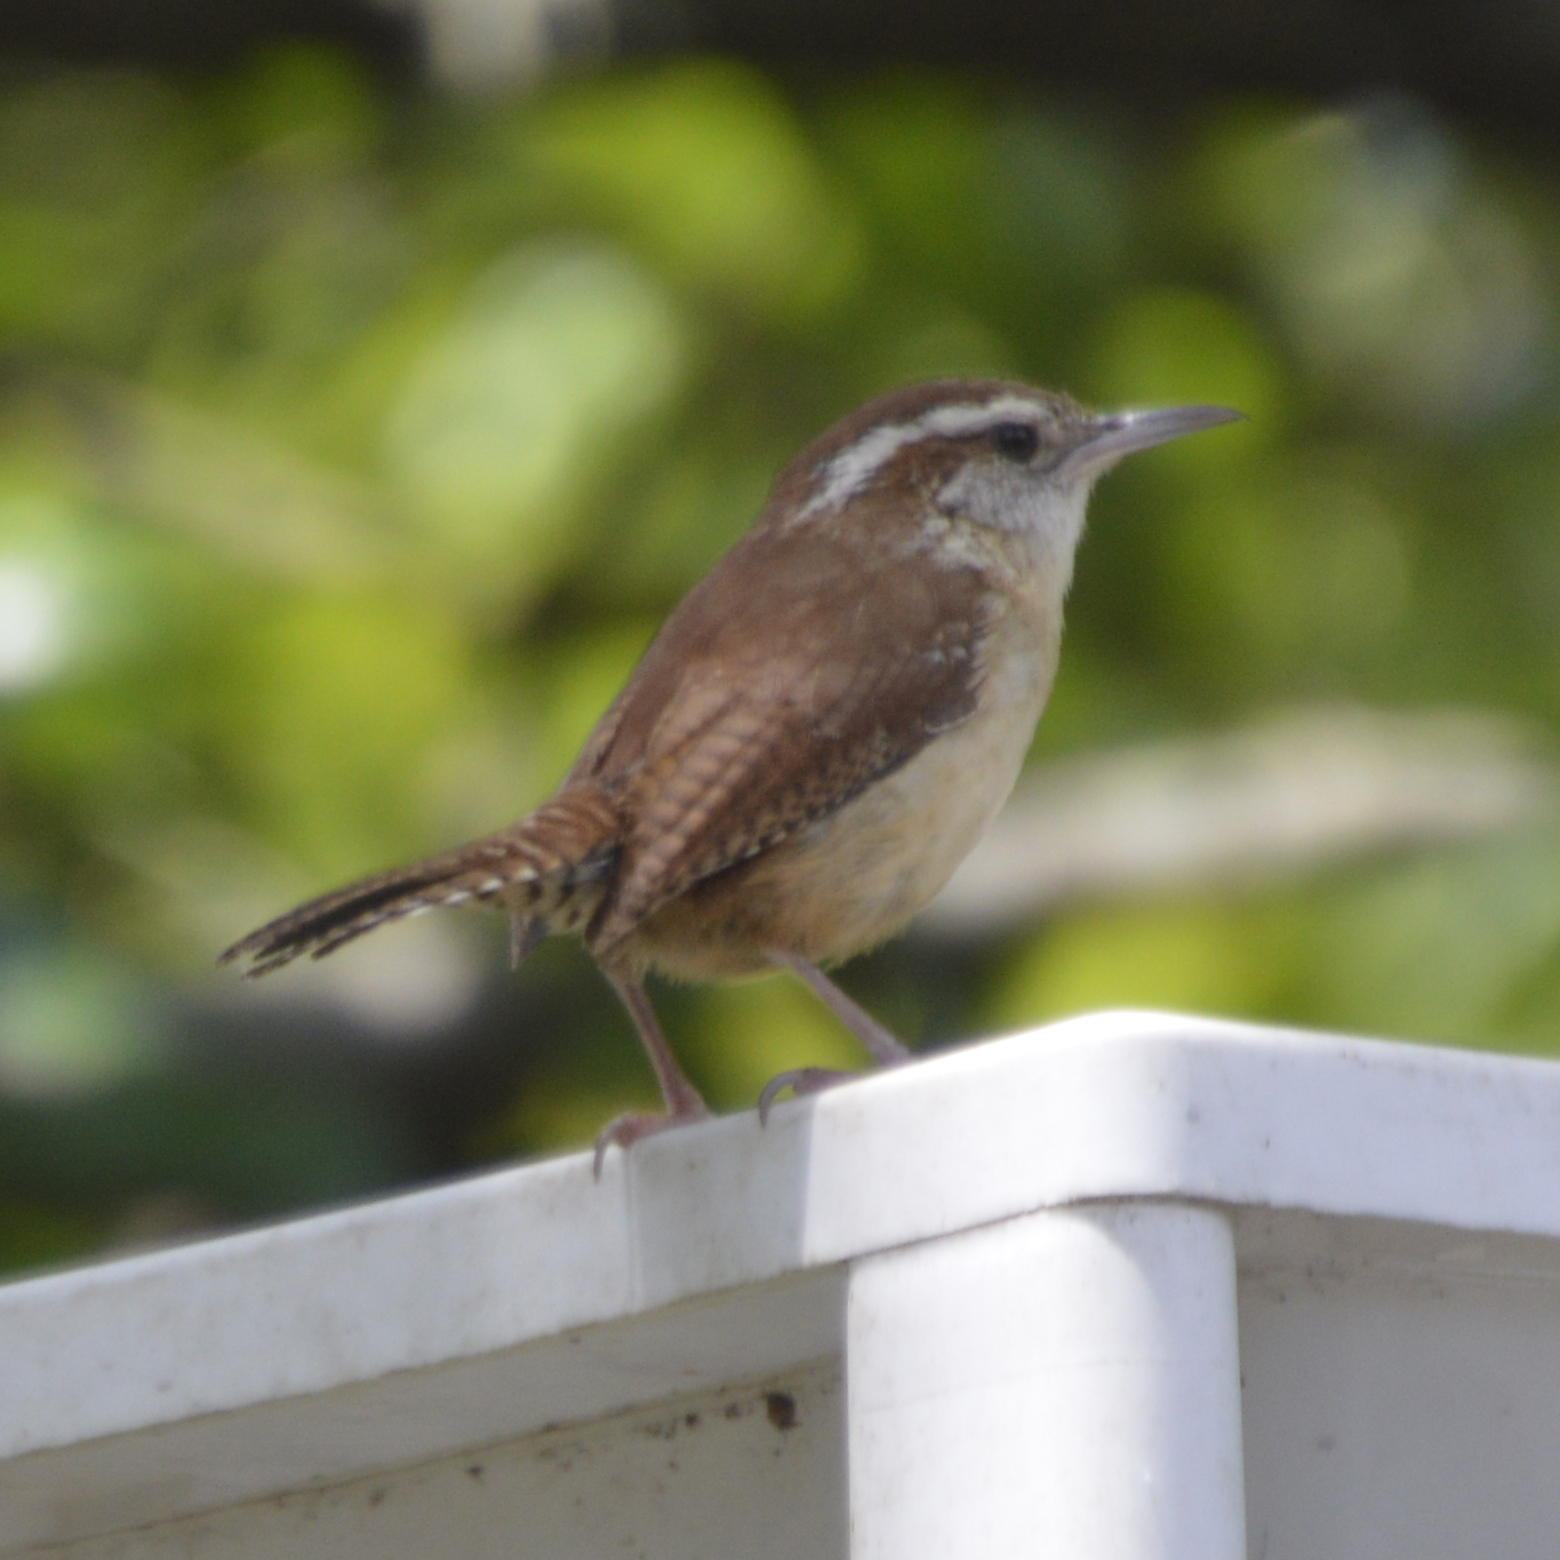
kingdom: Animalia
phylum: Chordata
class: Aves
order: Passeriformes
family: Troglodytidae
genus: Thryothorus
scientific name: Thryothorus ludovicianus
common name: Carolina wren
